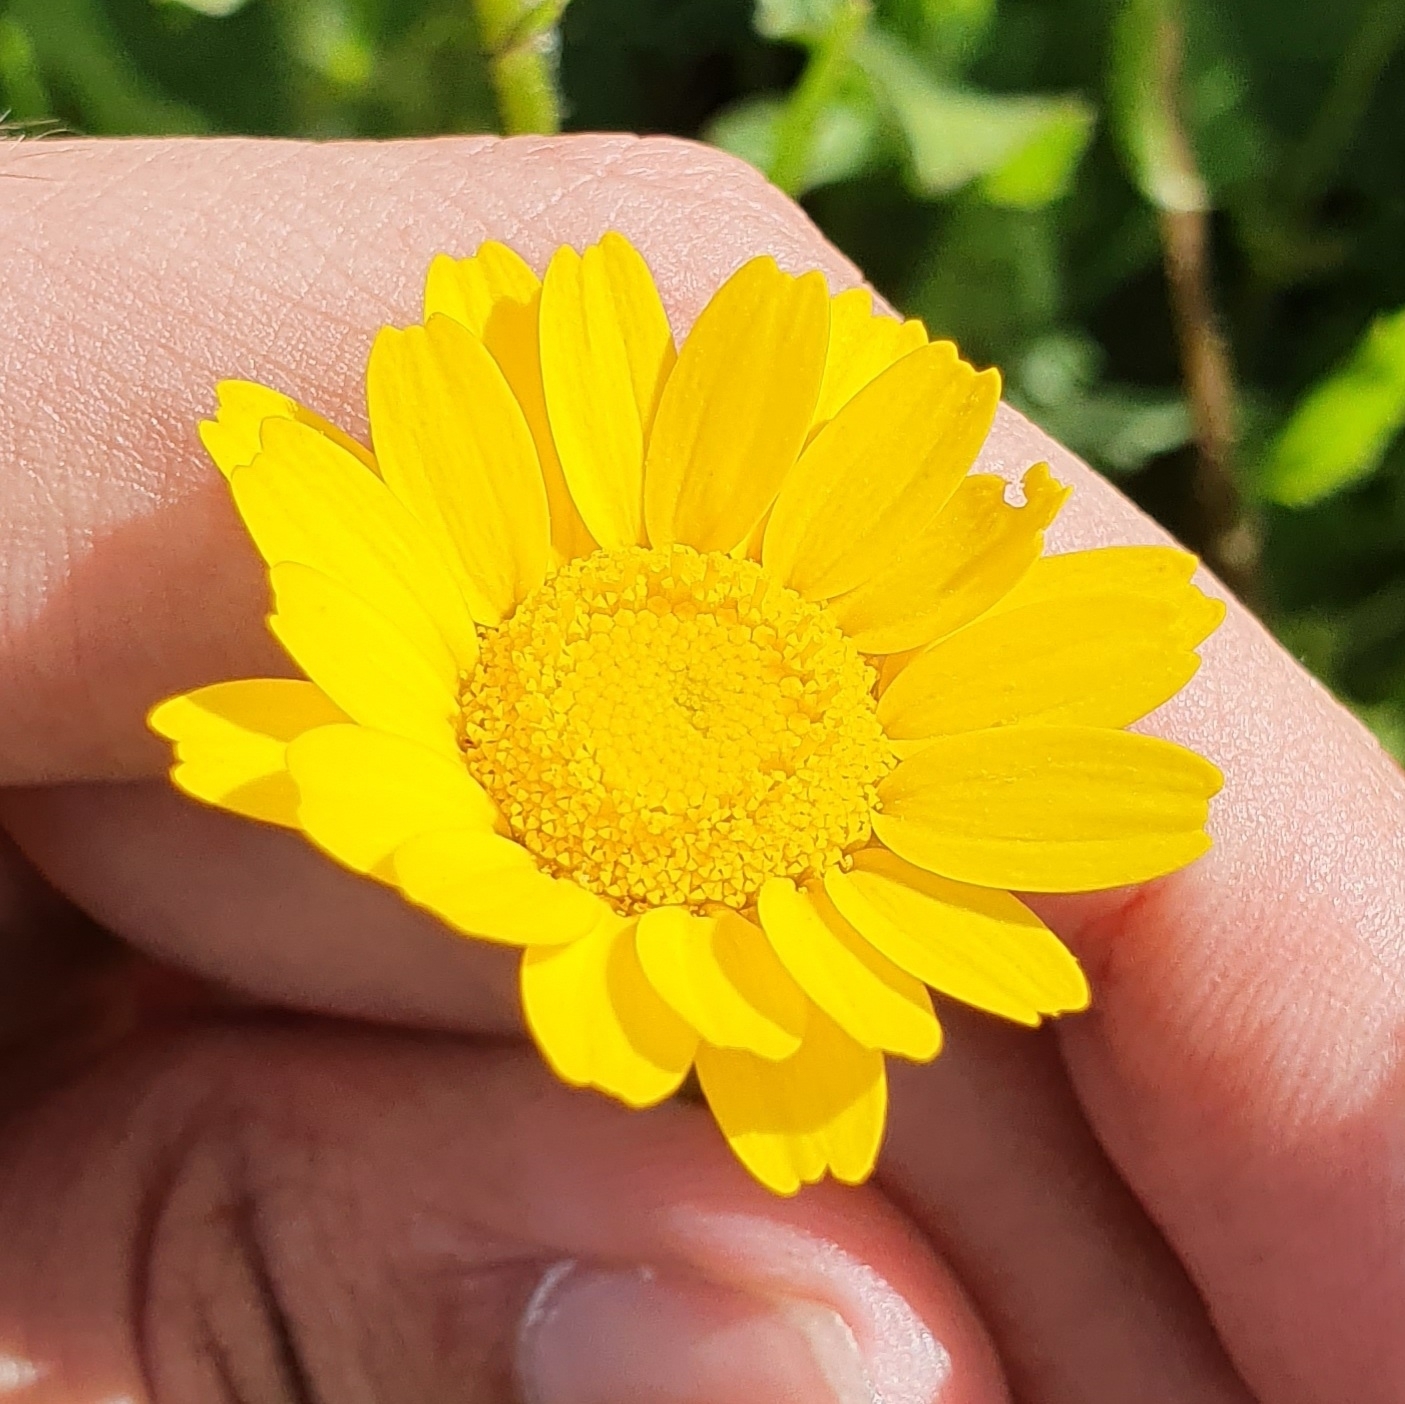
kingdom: Plantae
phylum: Tracheophyta
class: Magnoliopsida
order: Asterales
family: Asteraceae
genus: Coleostephus
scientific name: Coleostephus myconis
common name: Mediterranean marigold
